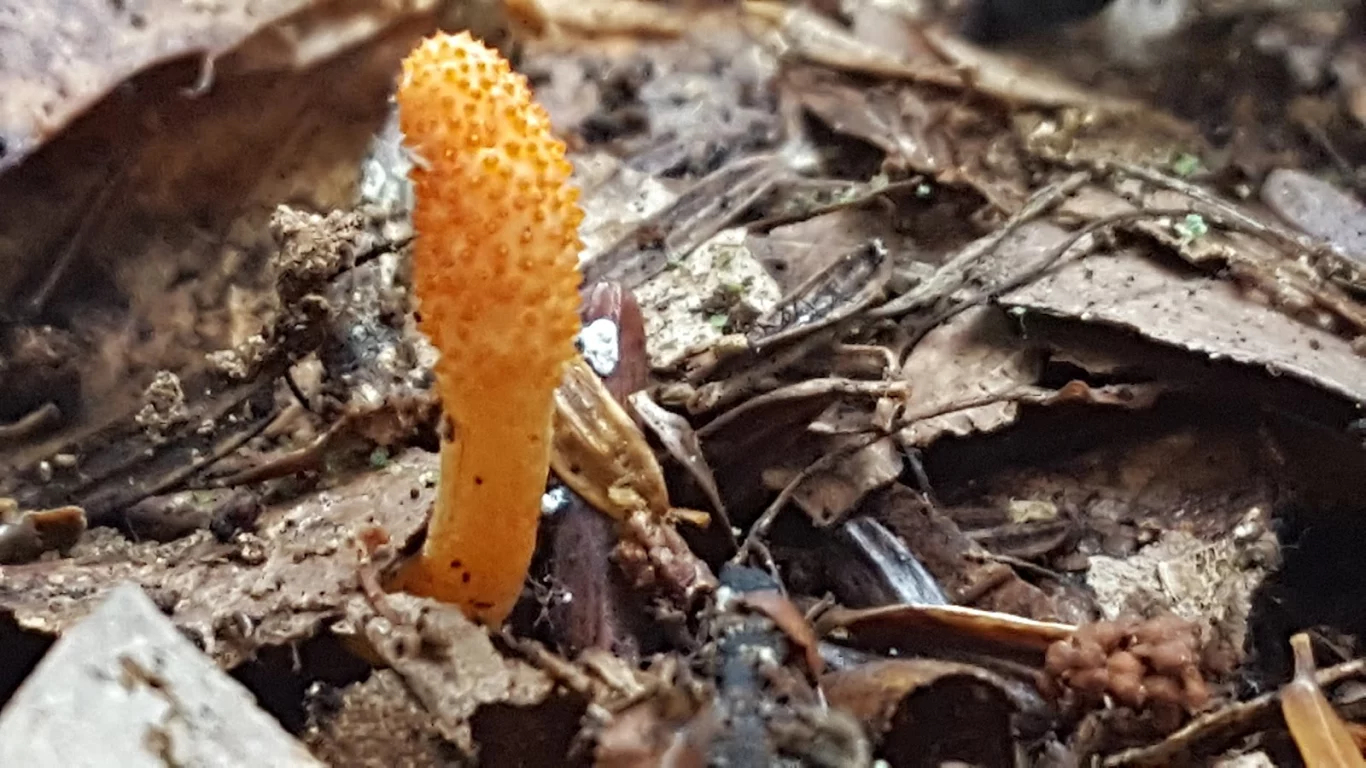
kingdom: Fungi
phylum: Ascomycota
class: Sordariomycetes
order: Hypocreales
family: Cordycipitaceae
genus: Cordyceps
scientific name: Cordyceps militaris
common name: Scarlet caterpillar fungus
